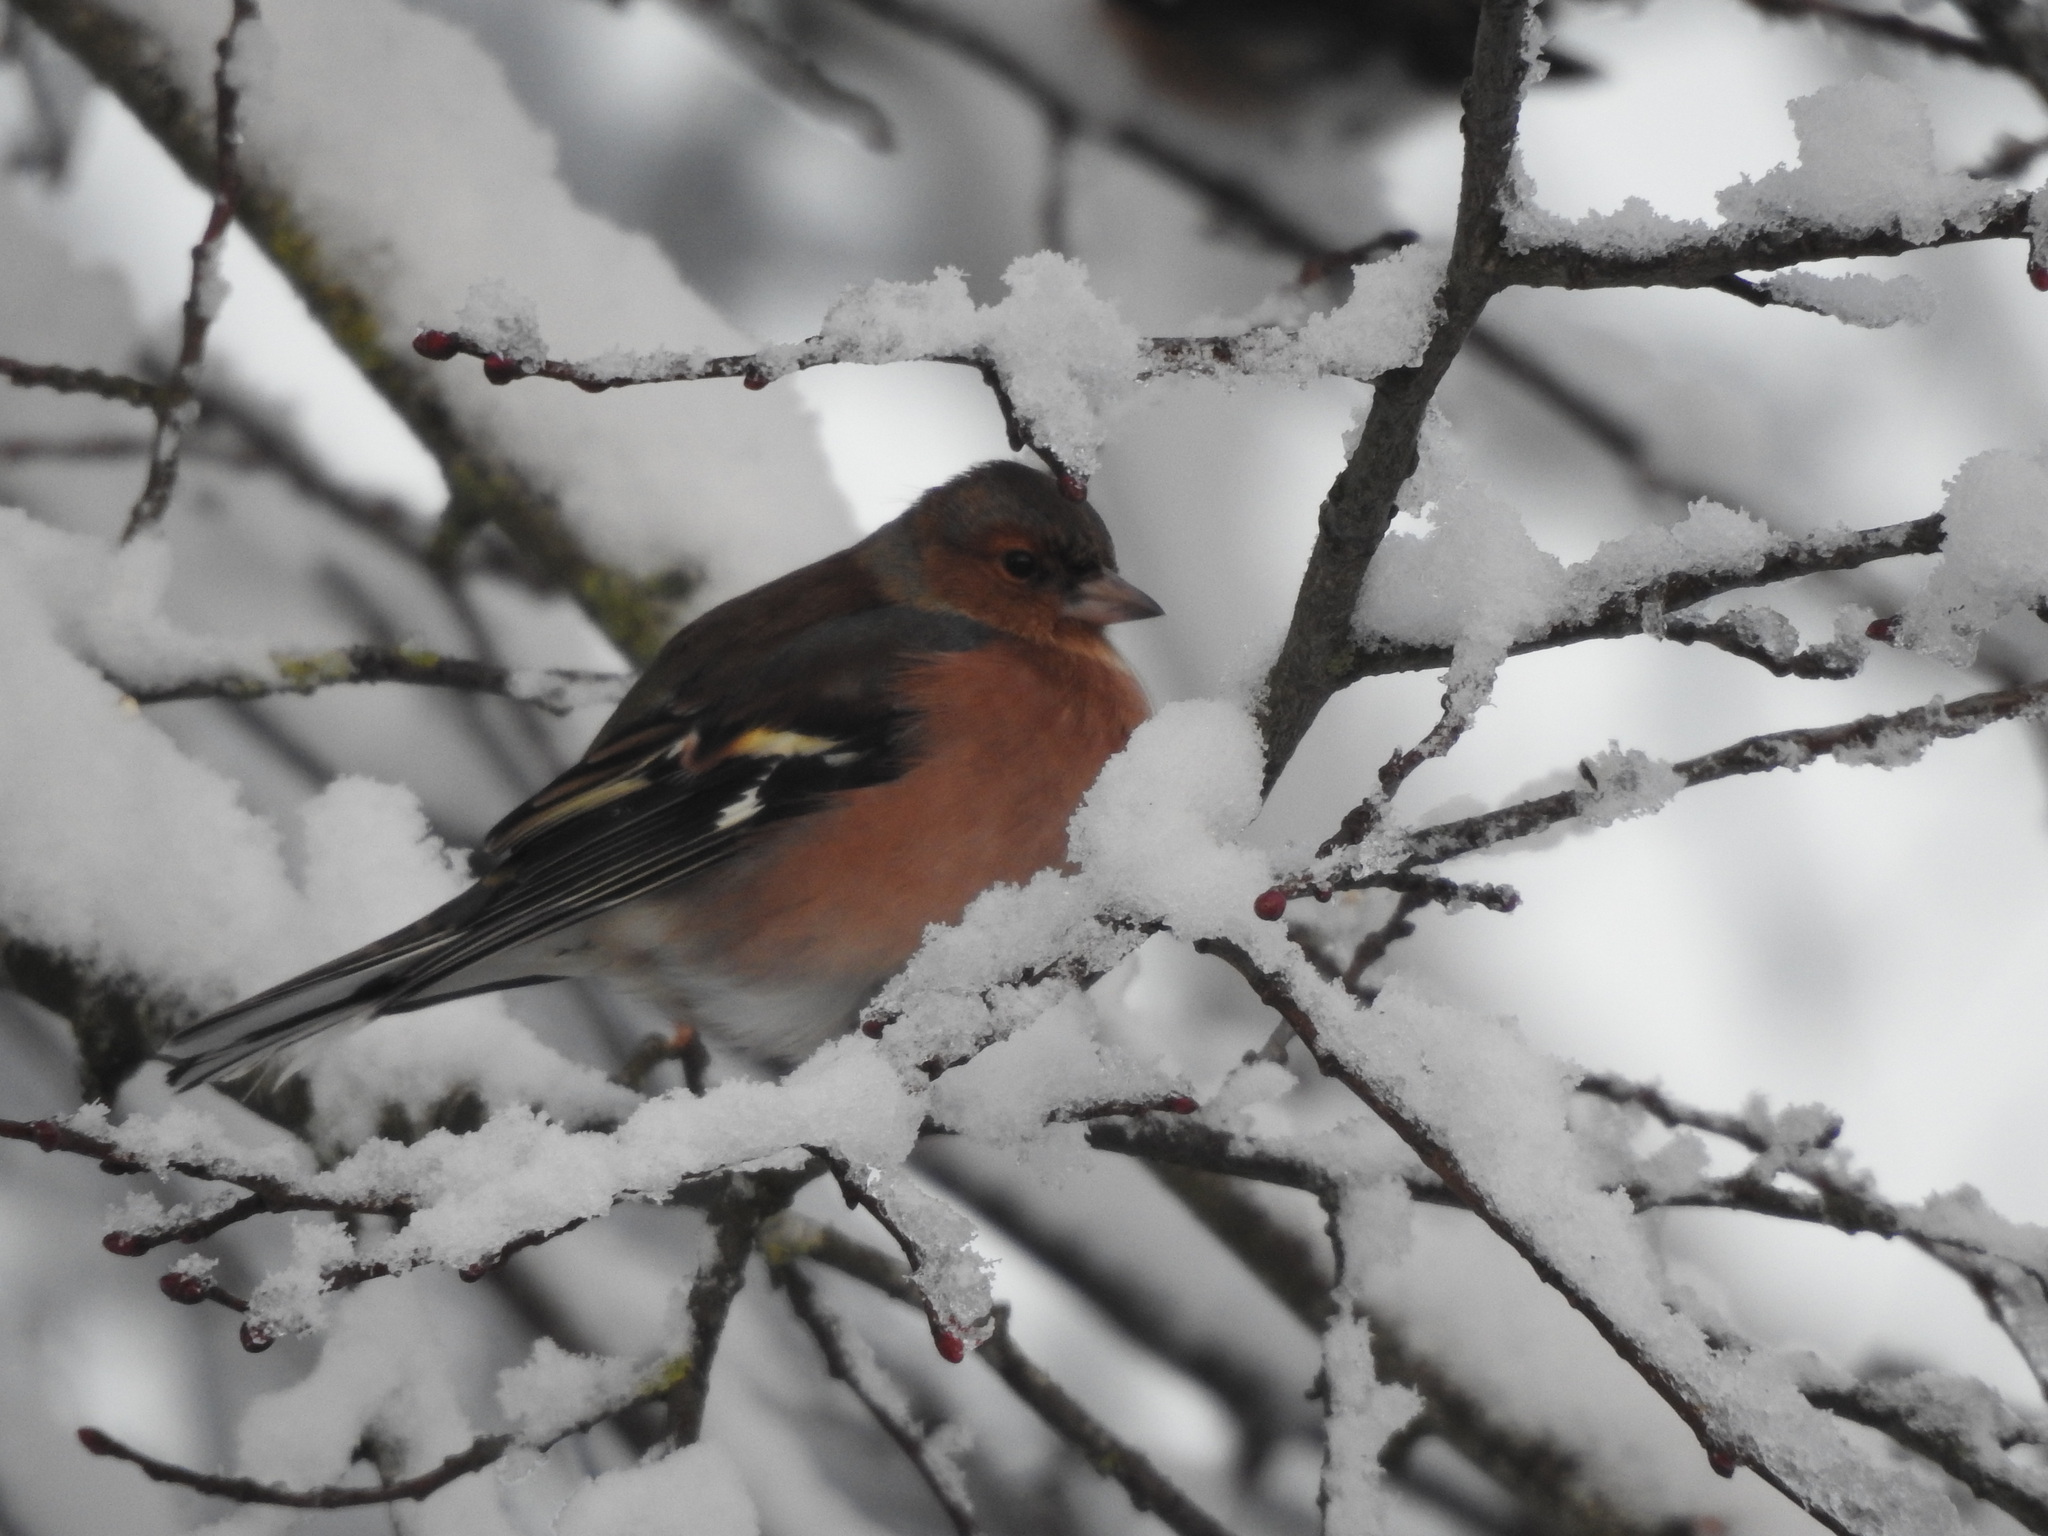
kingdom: Animalia
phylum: Chordata
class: Aves
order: Passeriformes
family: Fringillidae
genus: Fringilla
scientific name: Fringilla coelebs
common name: Common chaffinch
